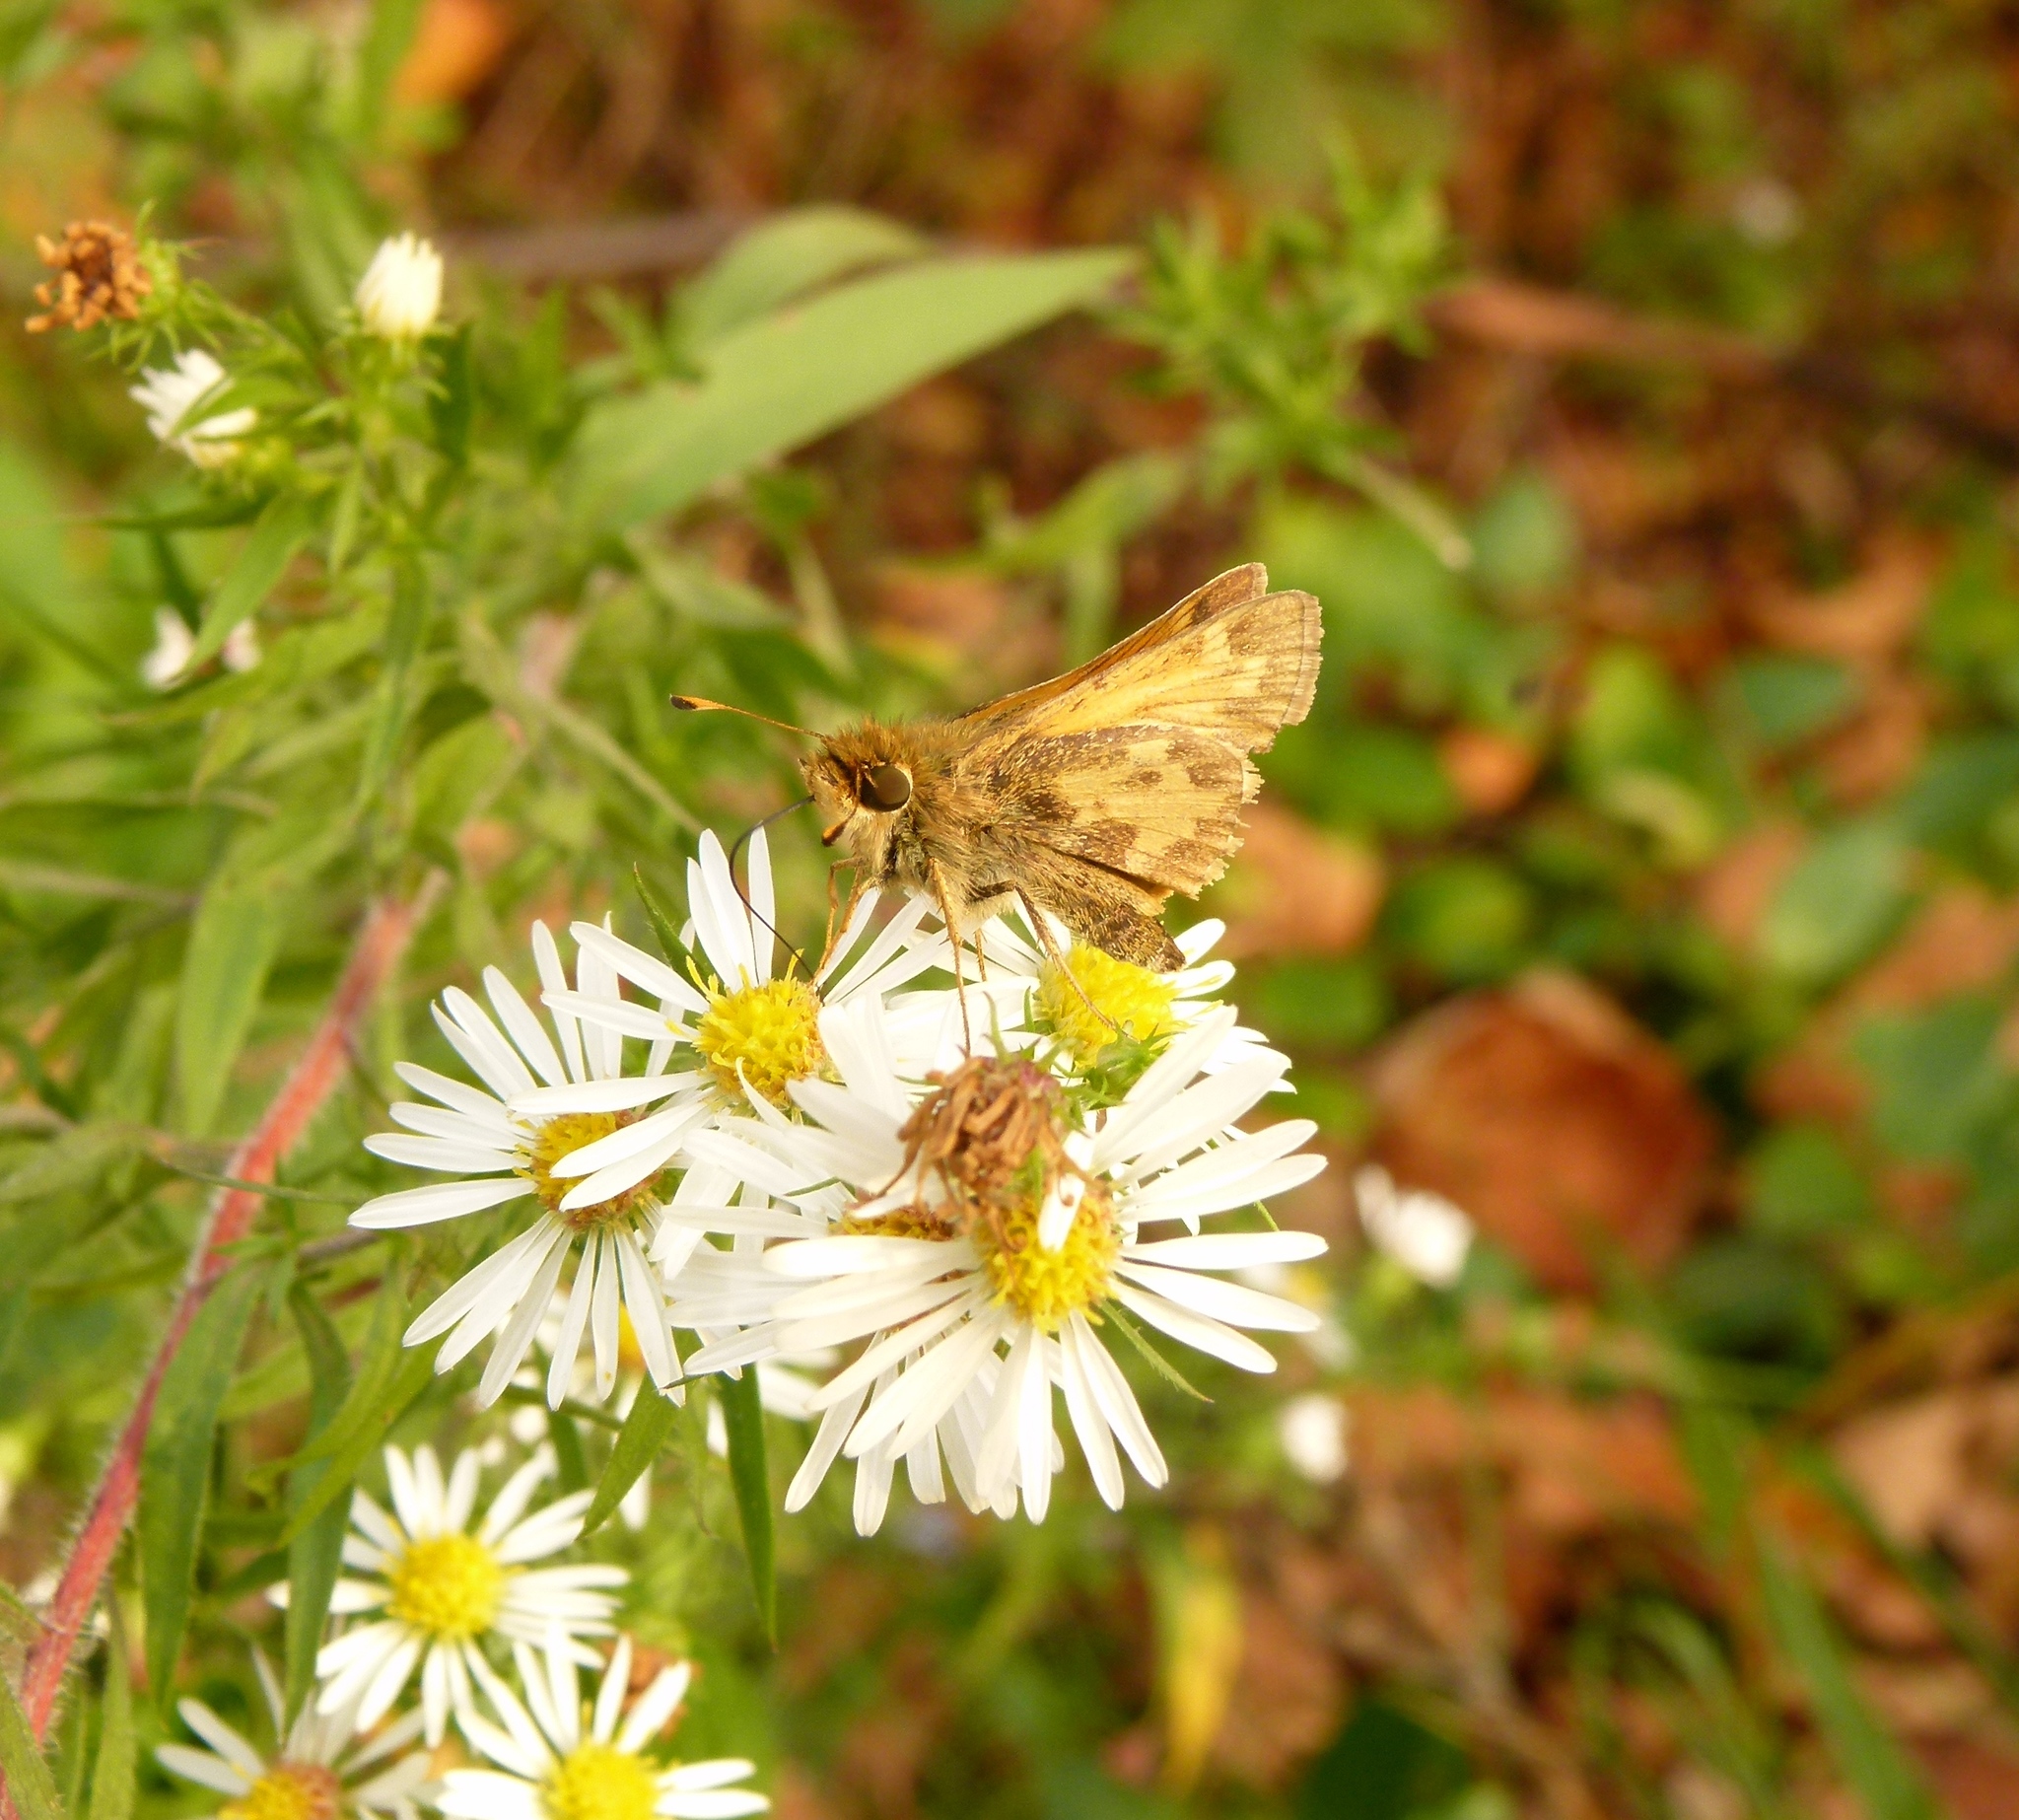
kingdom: Animalia
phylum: Arthropoda
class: Insecta
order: Lepidoptera
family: Hesperiidae
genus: Atalopedes
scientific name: Atalopedes
